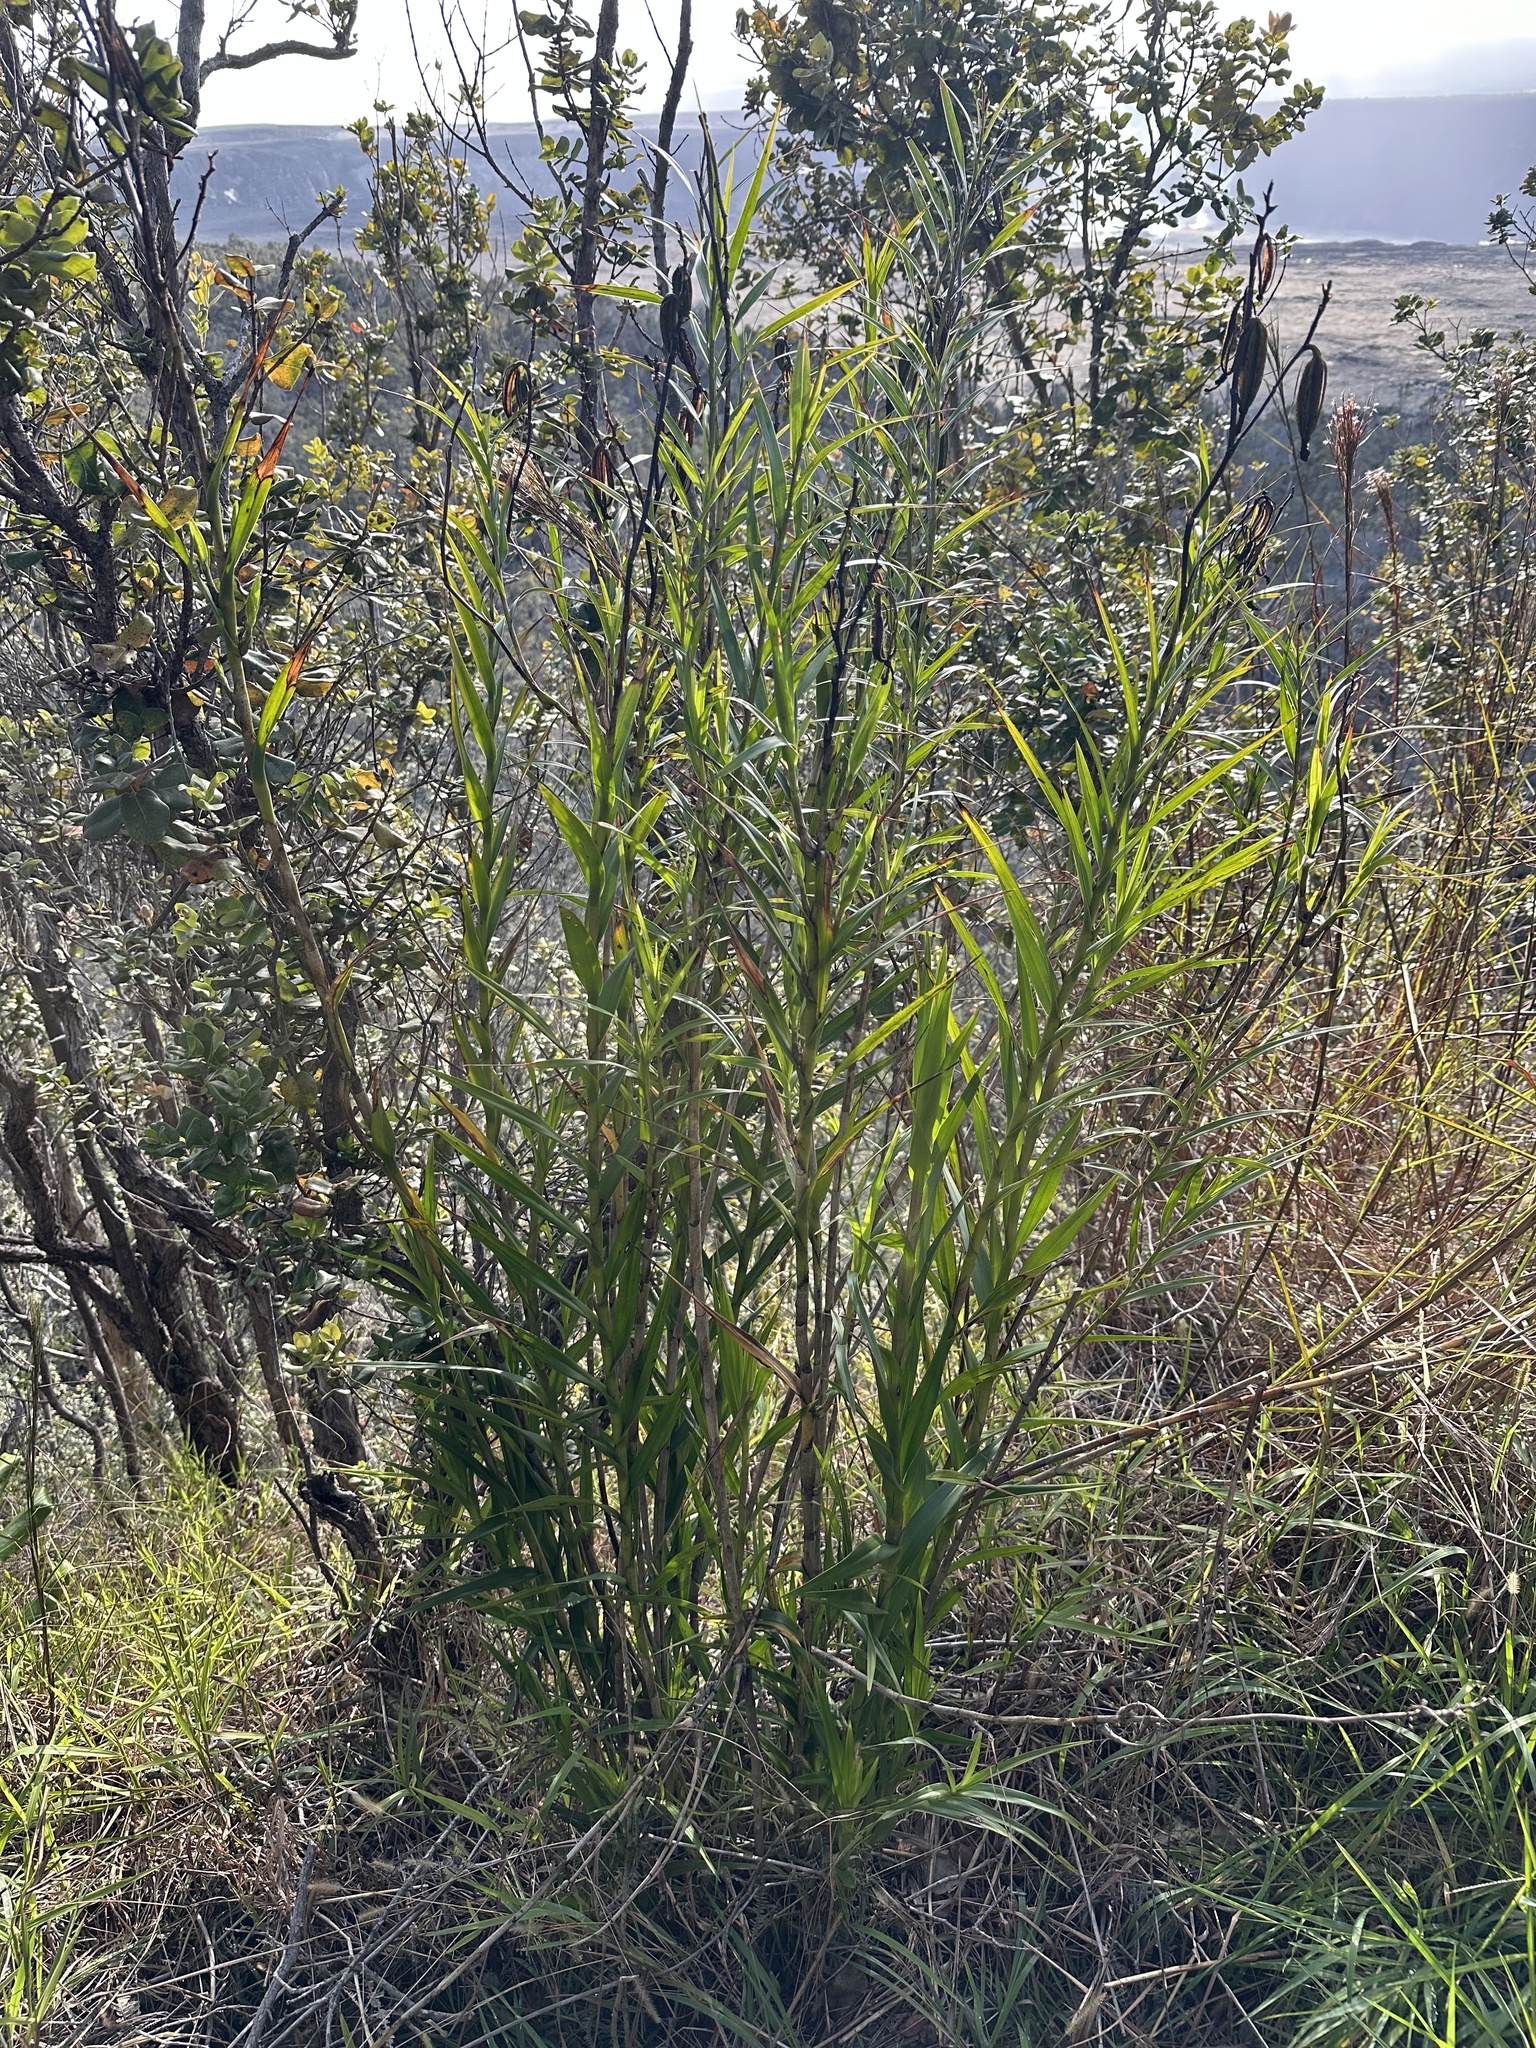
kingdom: Plantae
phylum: Tracheophyta
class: Liliopsida
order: Asparagales
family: Orchidaceae
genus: Arundina
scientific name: Arundina graminifolia
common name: Bamboo orchid
